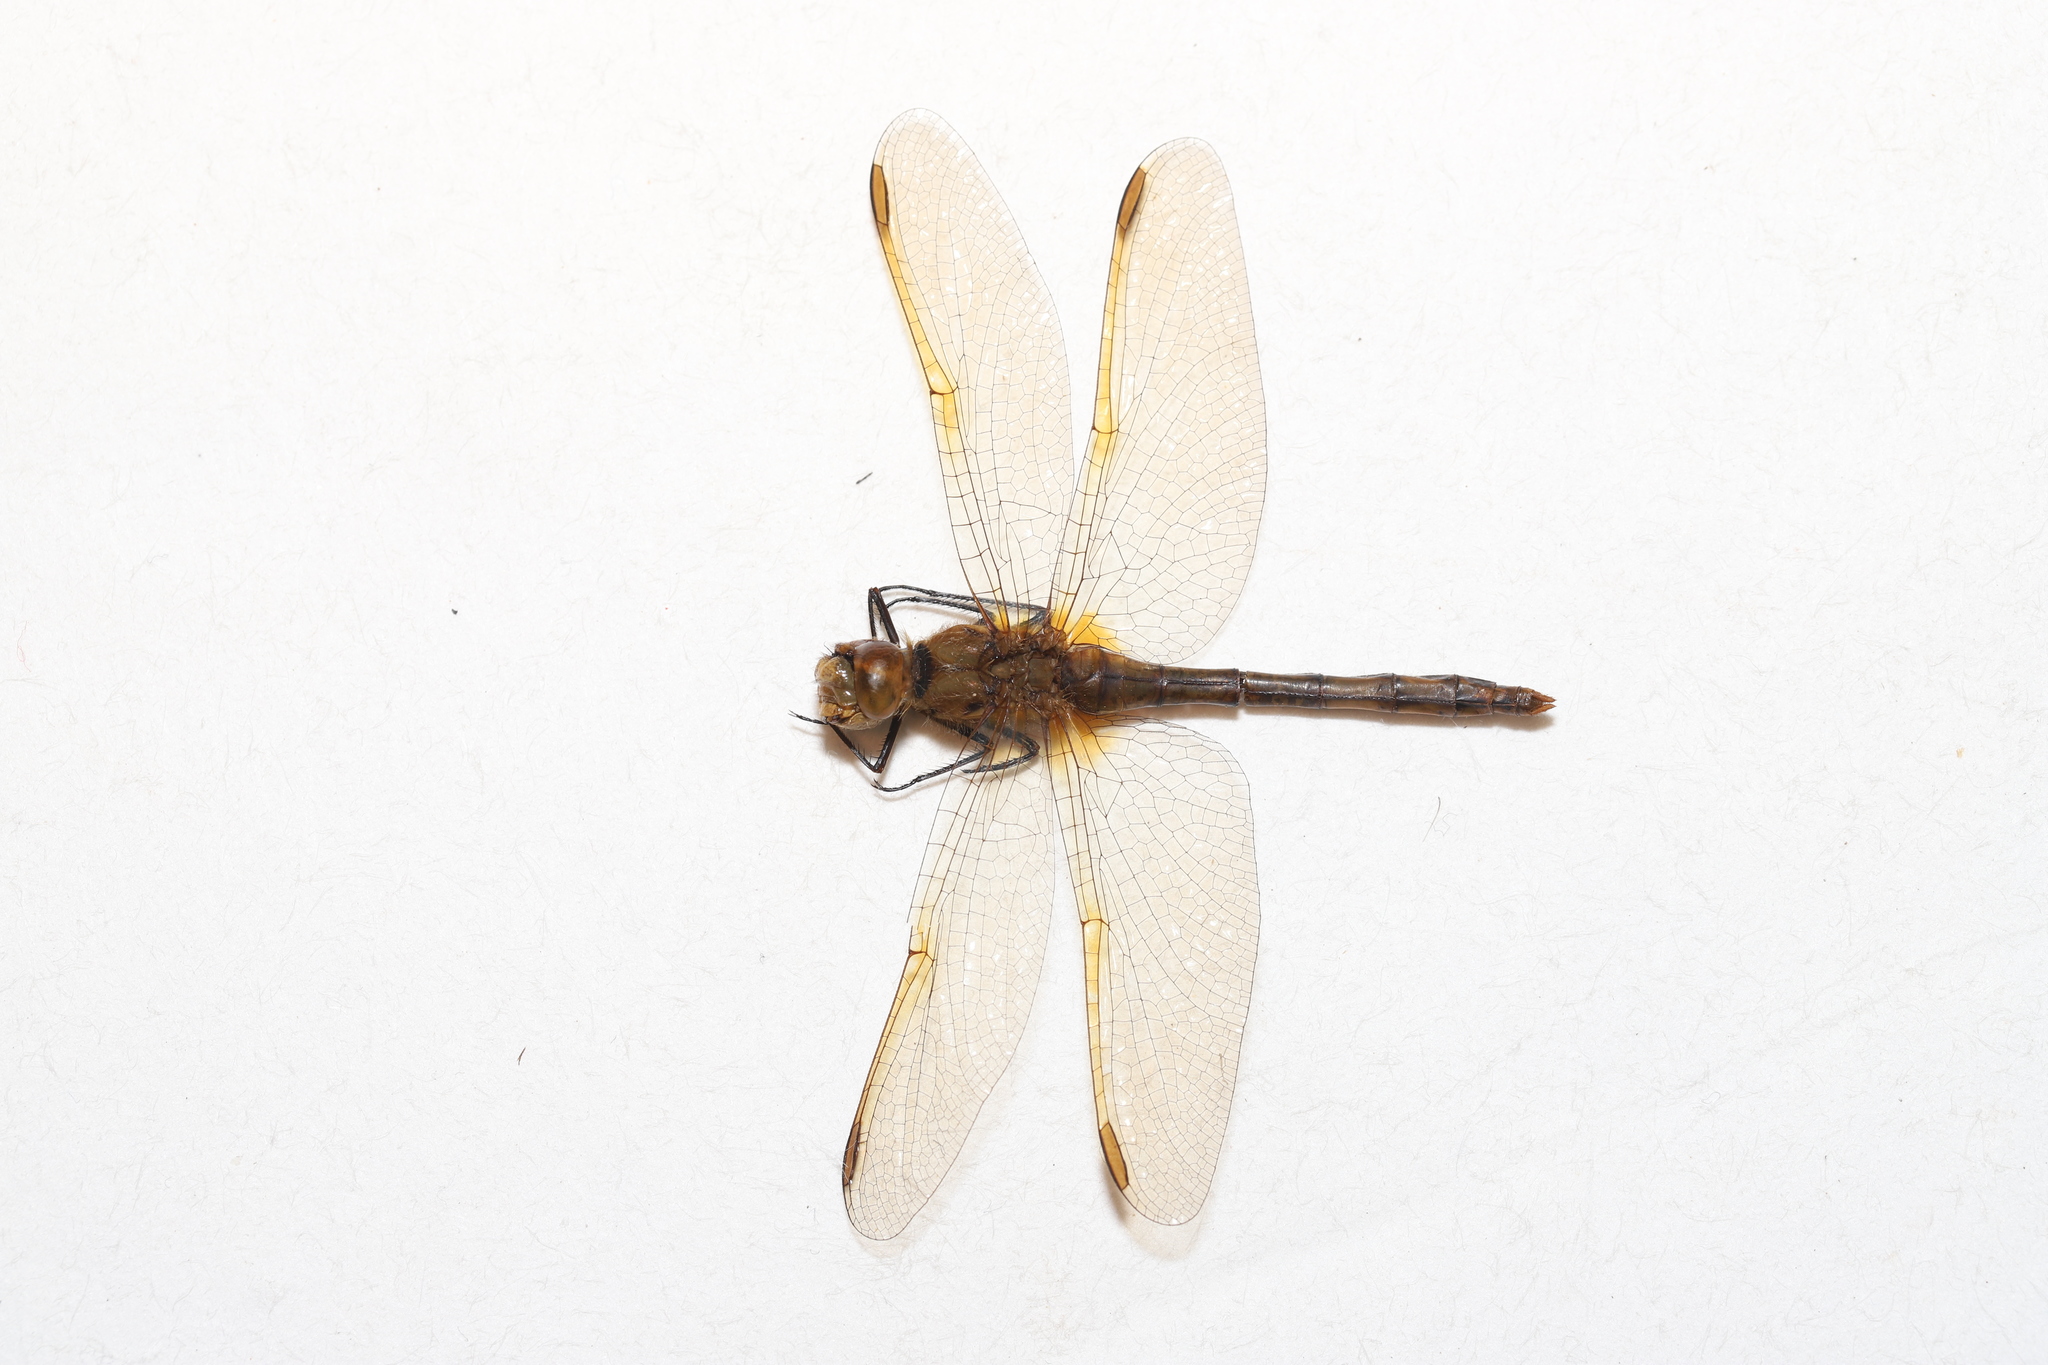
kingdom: Animalia
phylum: Arthropoda
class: Insecta
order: Odonata
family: Libellulidae
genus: Sympetrum
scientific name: Sympetrum costiferum
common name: Saffron-winged meadowhawk
